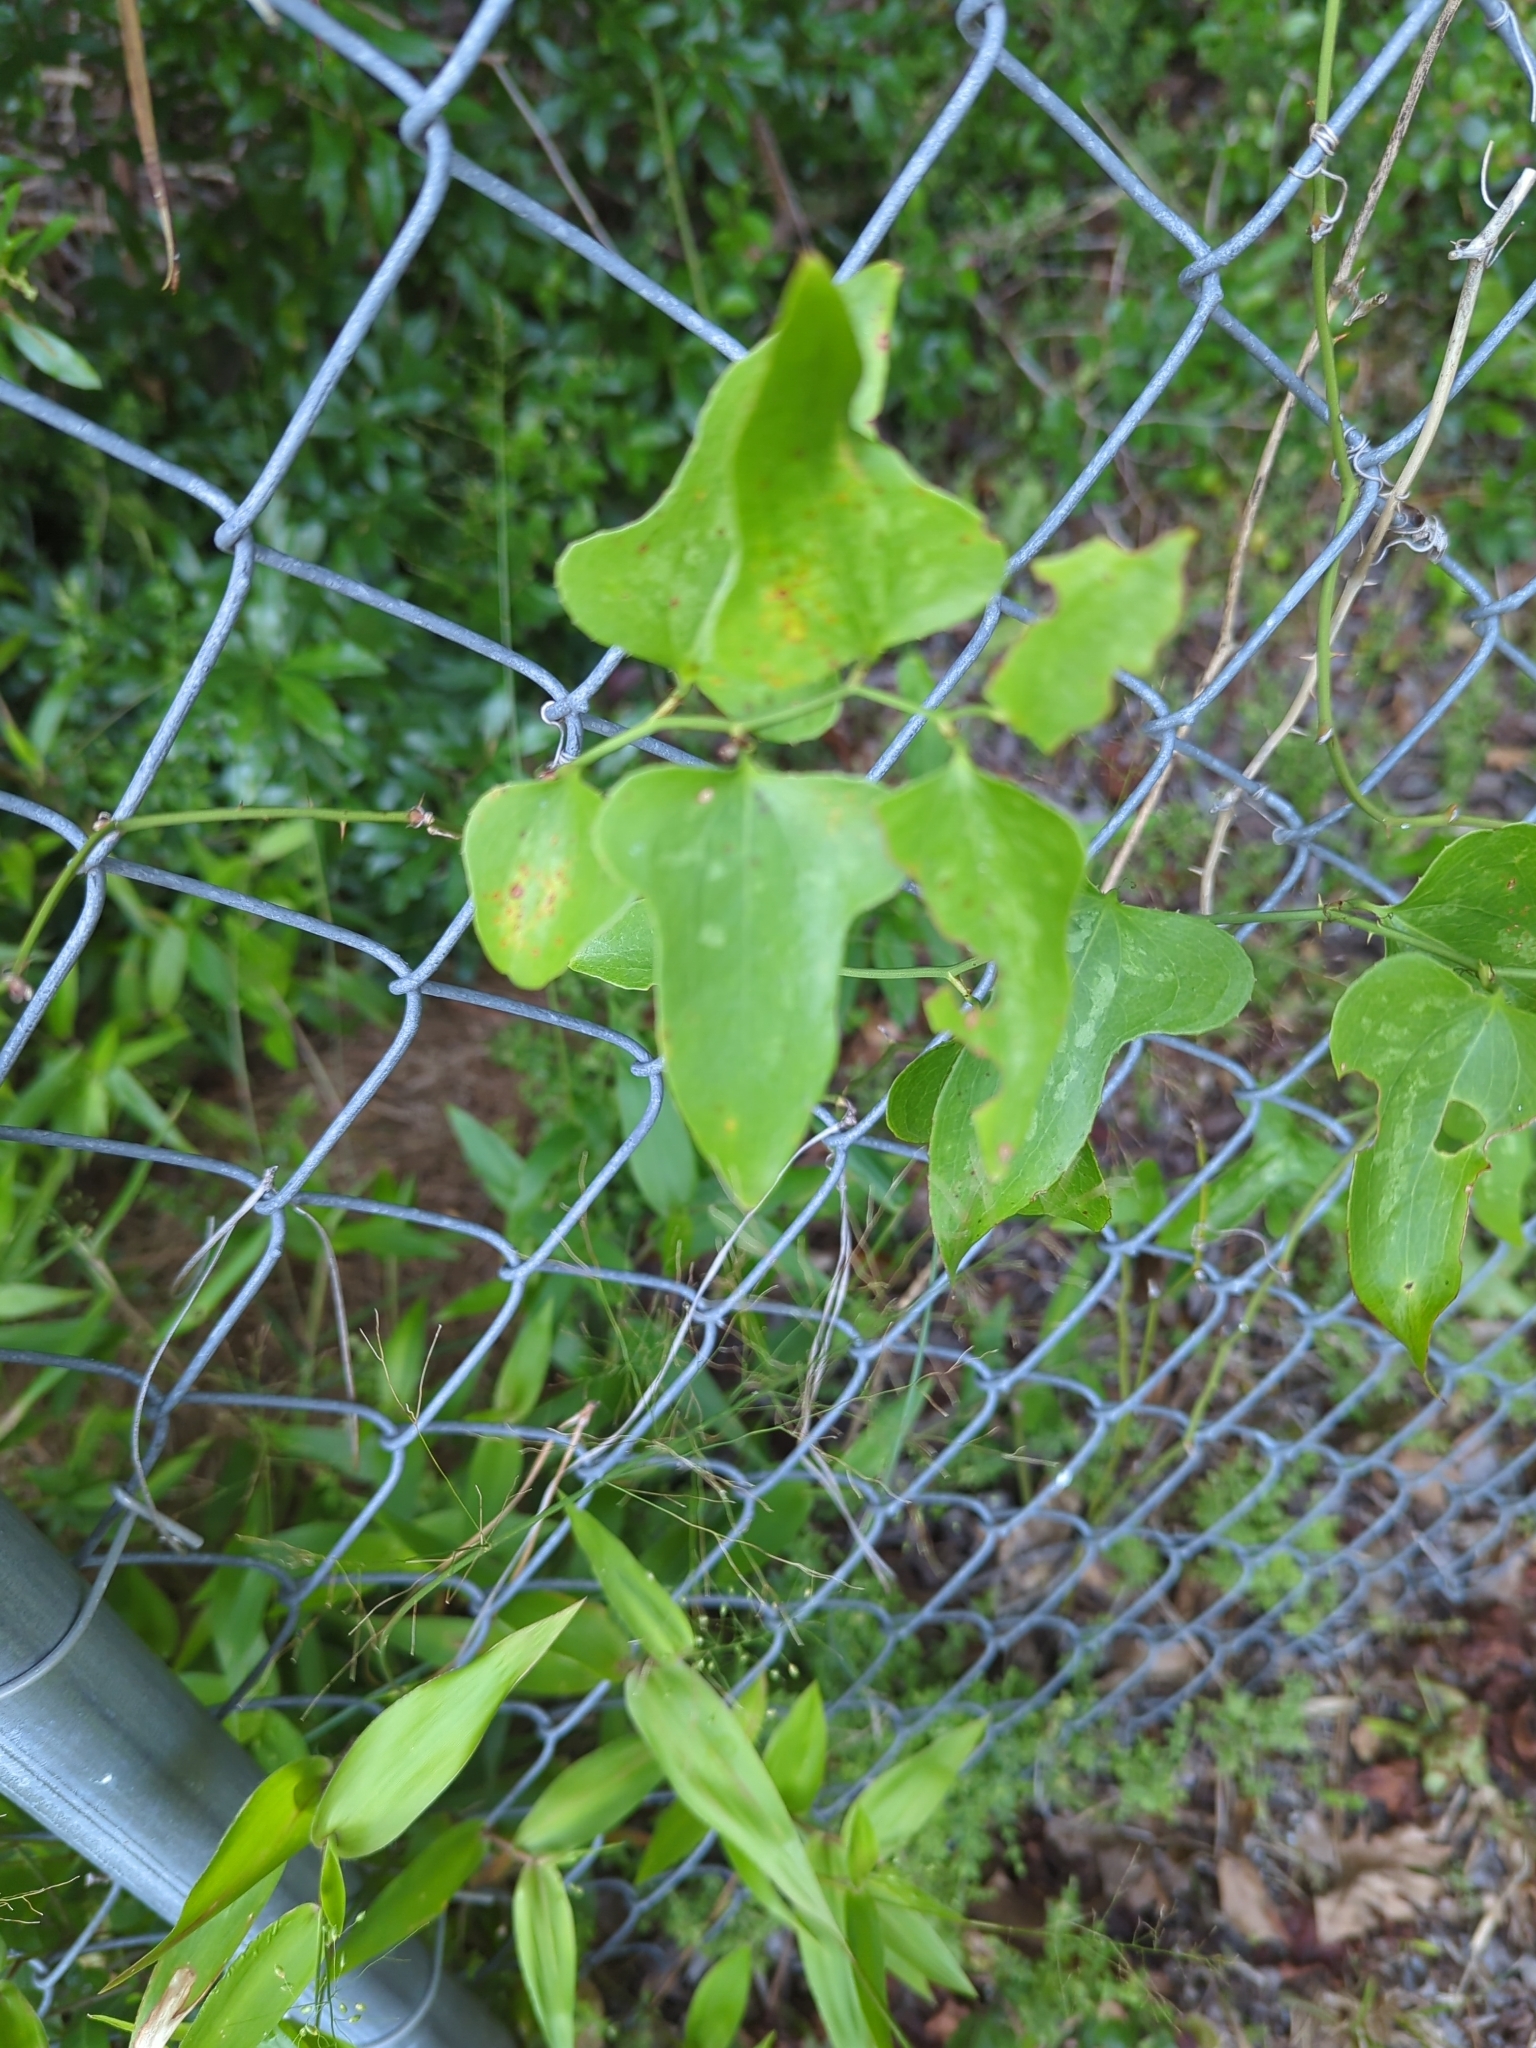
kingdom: Plantae
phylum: Tracheophyta
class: Liliopsida
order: Liliales
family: Smilacaceae
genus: Smilax
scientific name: Smilax bona-nox
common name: Catbrier
